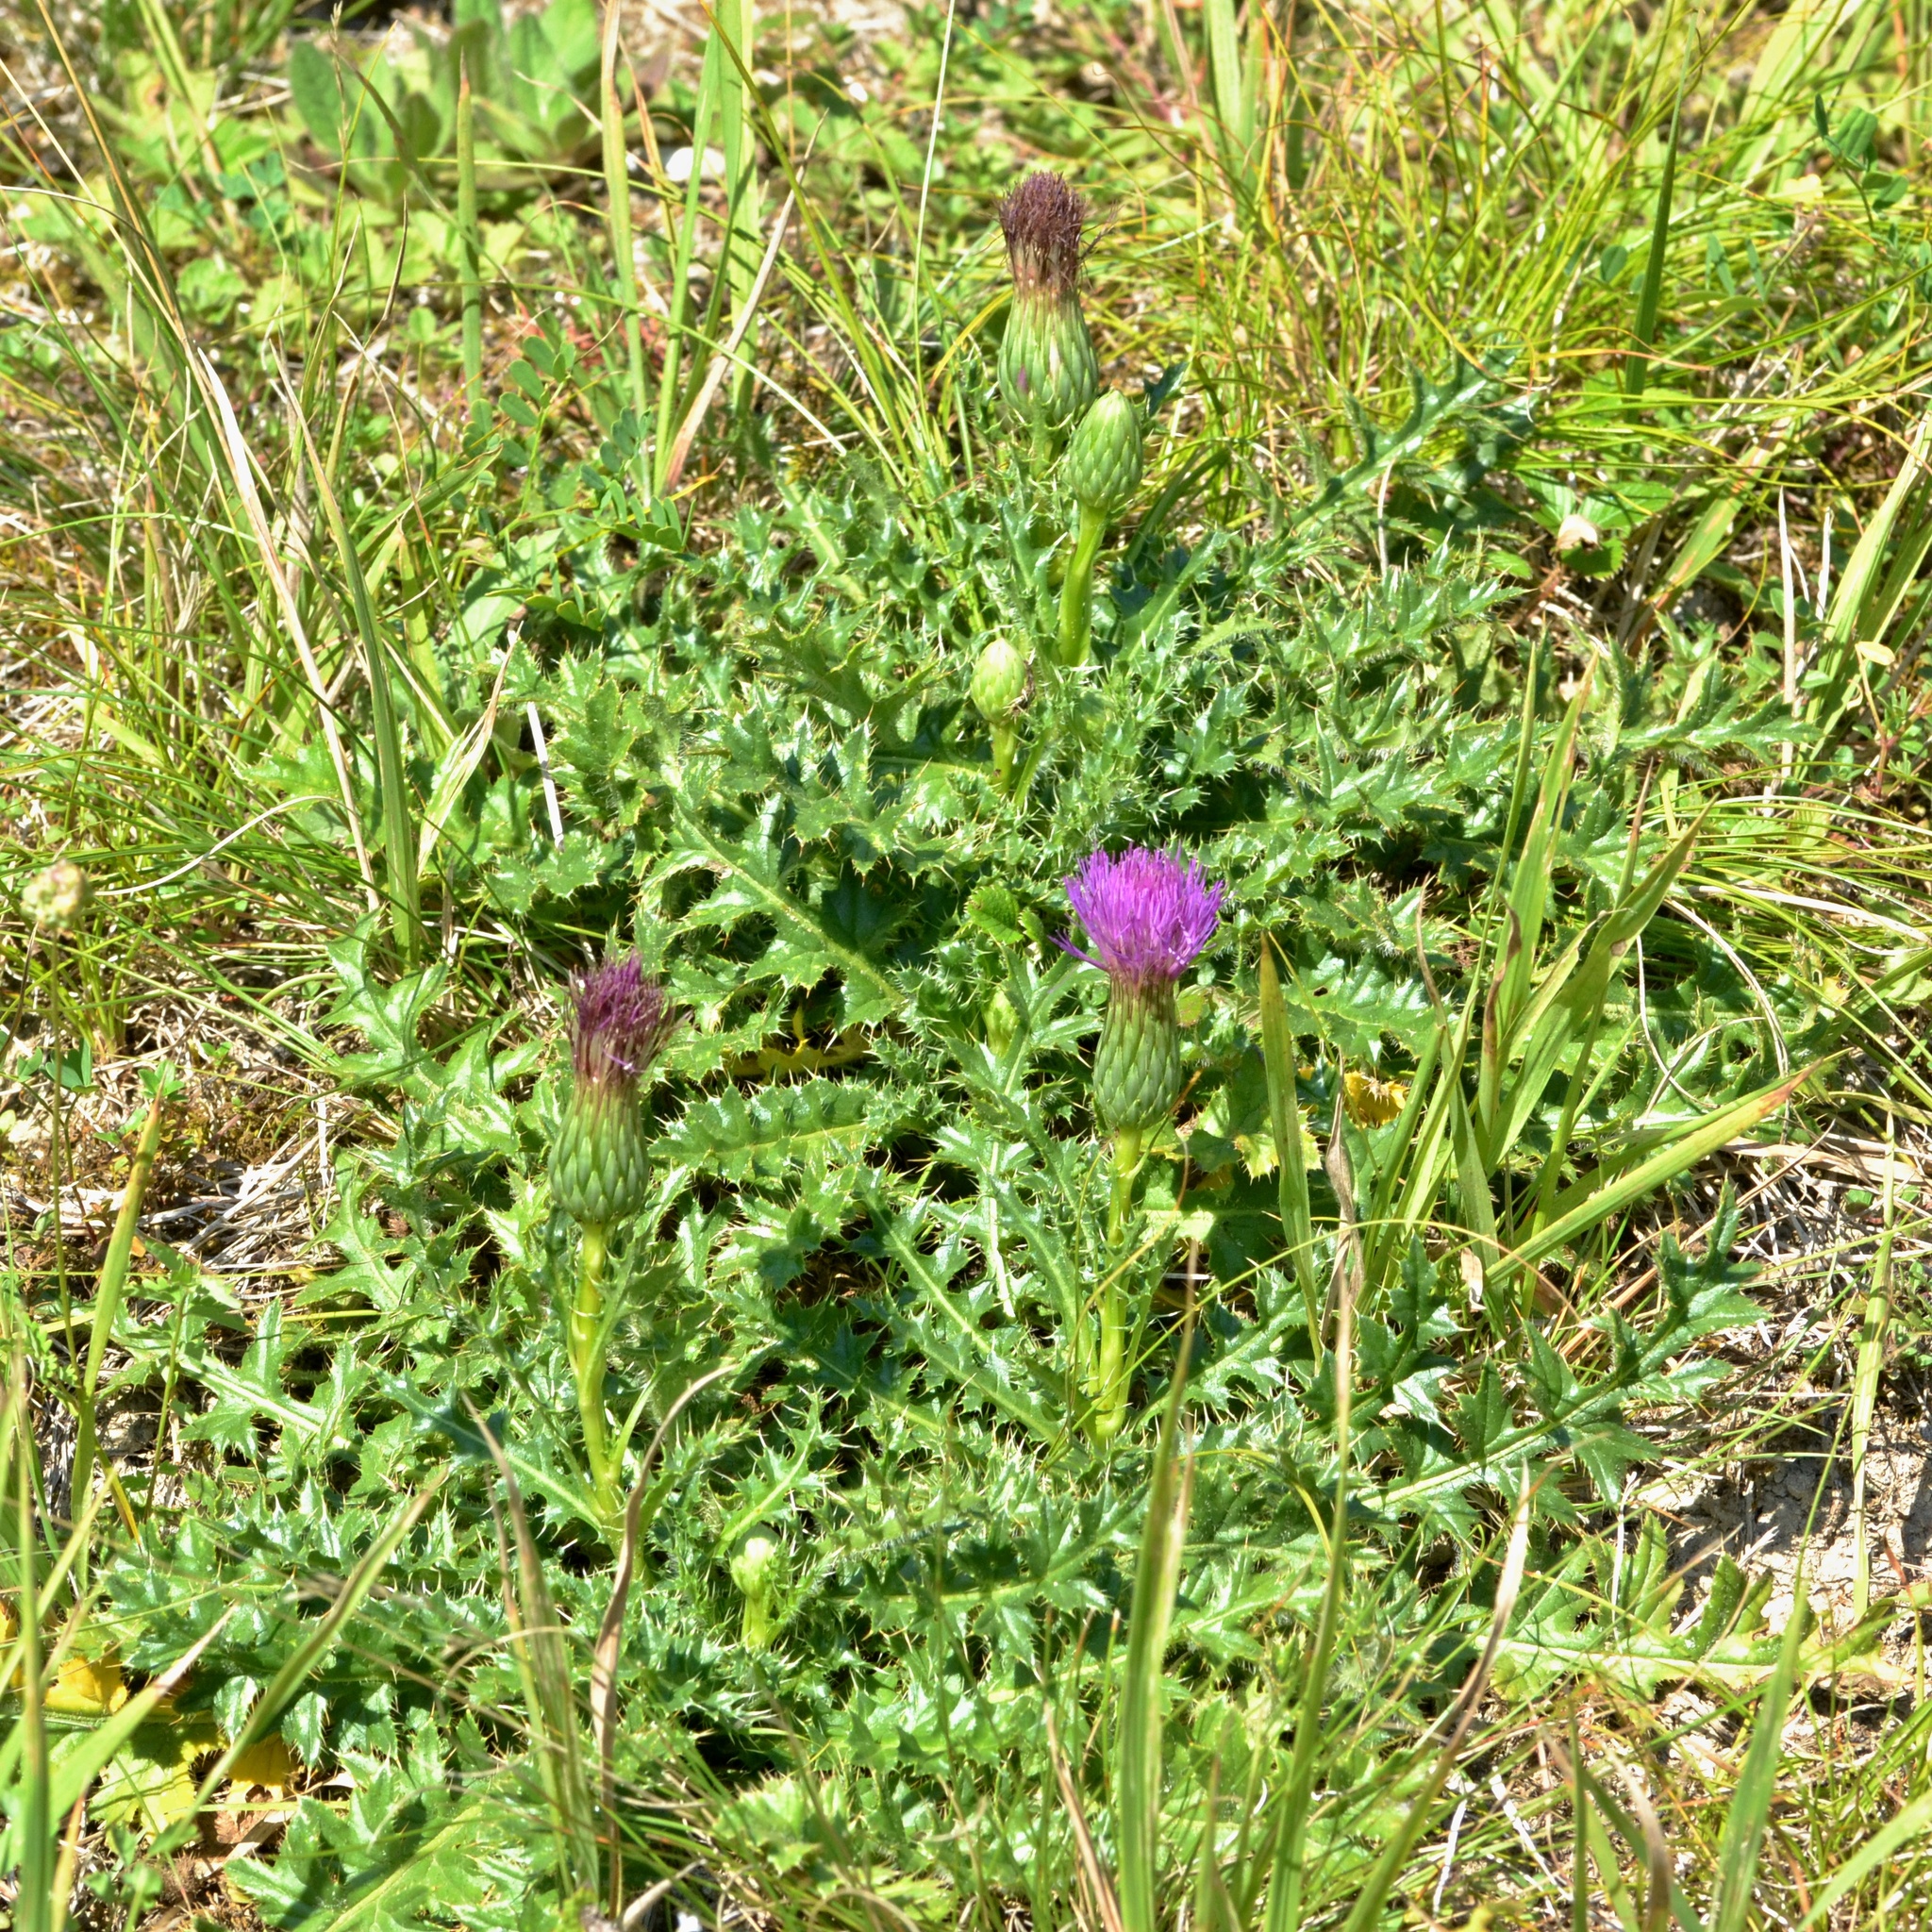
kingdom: Plantae
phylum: Tracheophyta
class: Magnoliopsida
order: Asterales
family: Asteraceae
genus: Cirsium
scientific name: Cirsium acaulon
